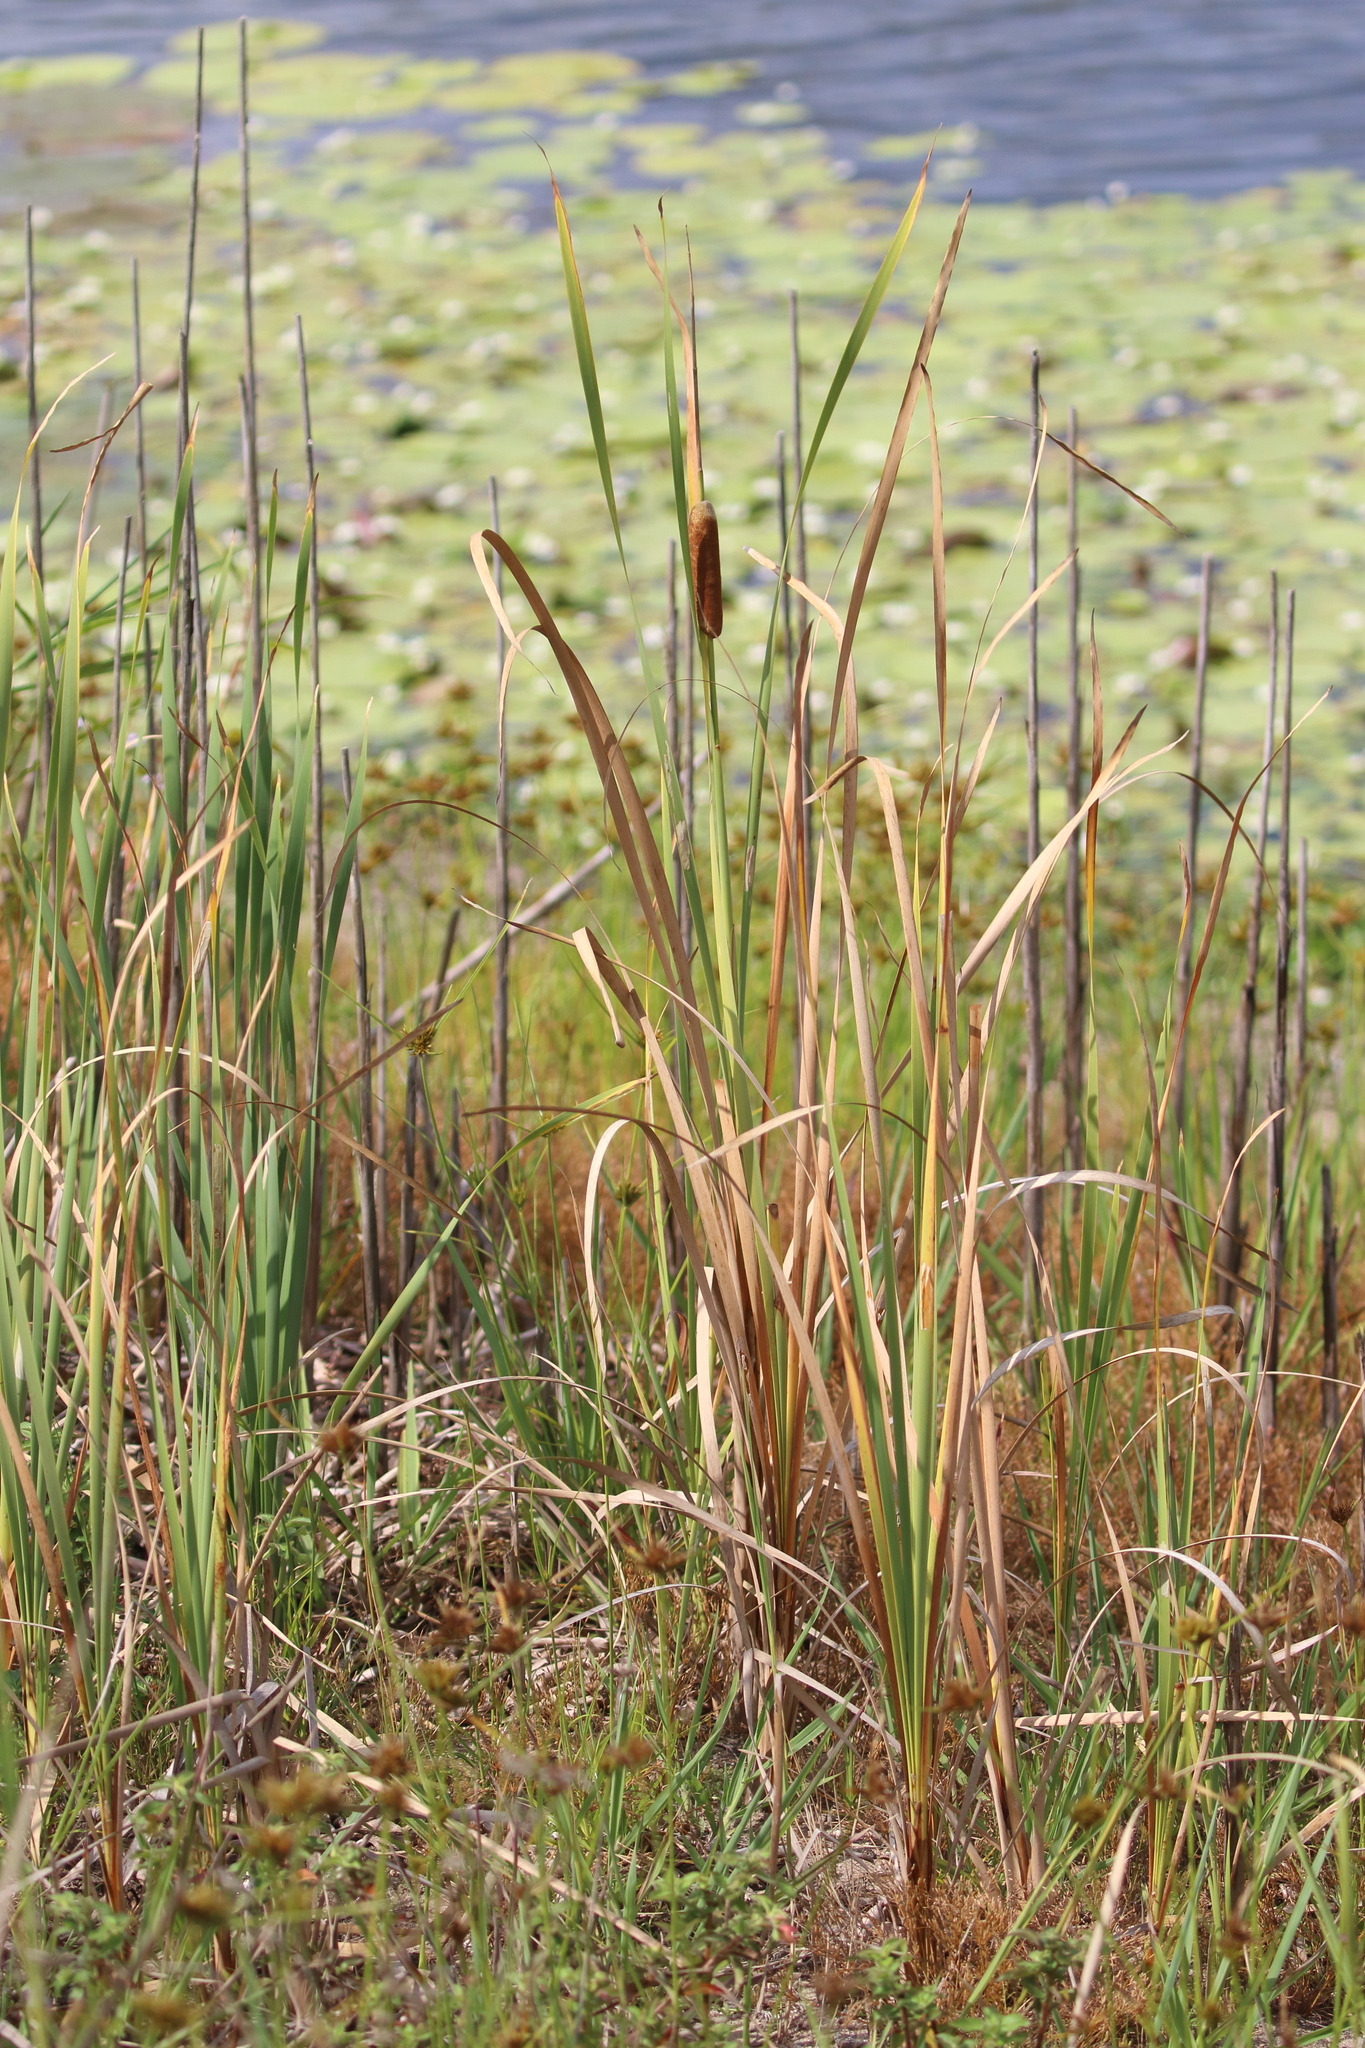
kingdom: Plantae
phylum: Tracheophyta
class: Liliopsida
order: Poales
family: Typhaceae
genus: Typha
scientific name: Typha orientalis
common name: Bullrush
